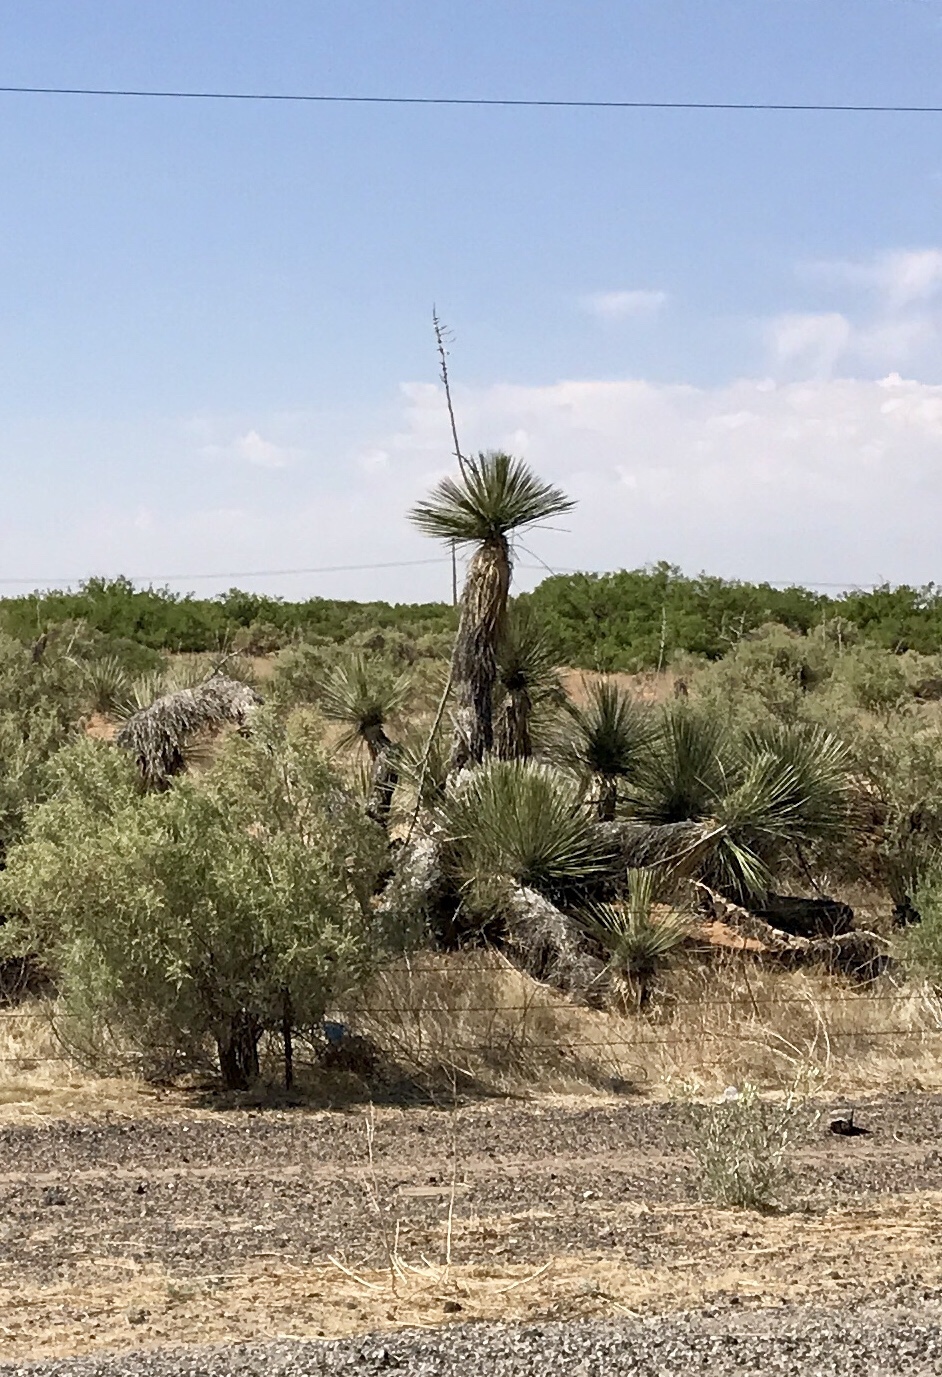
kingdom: Plantae
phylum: Tracheophyta
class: Liliopsida
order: Asparagales
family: Asparagaceae
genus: Yucca
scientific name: Yucca elata
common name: Palmella
